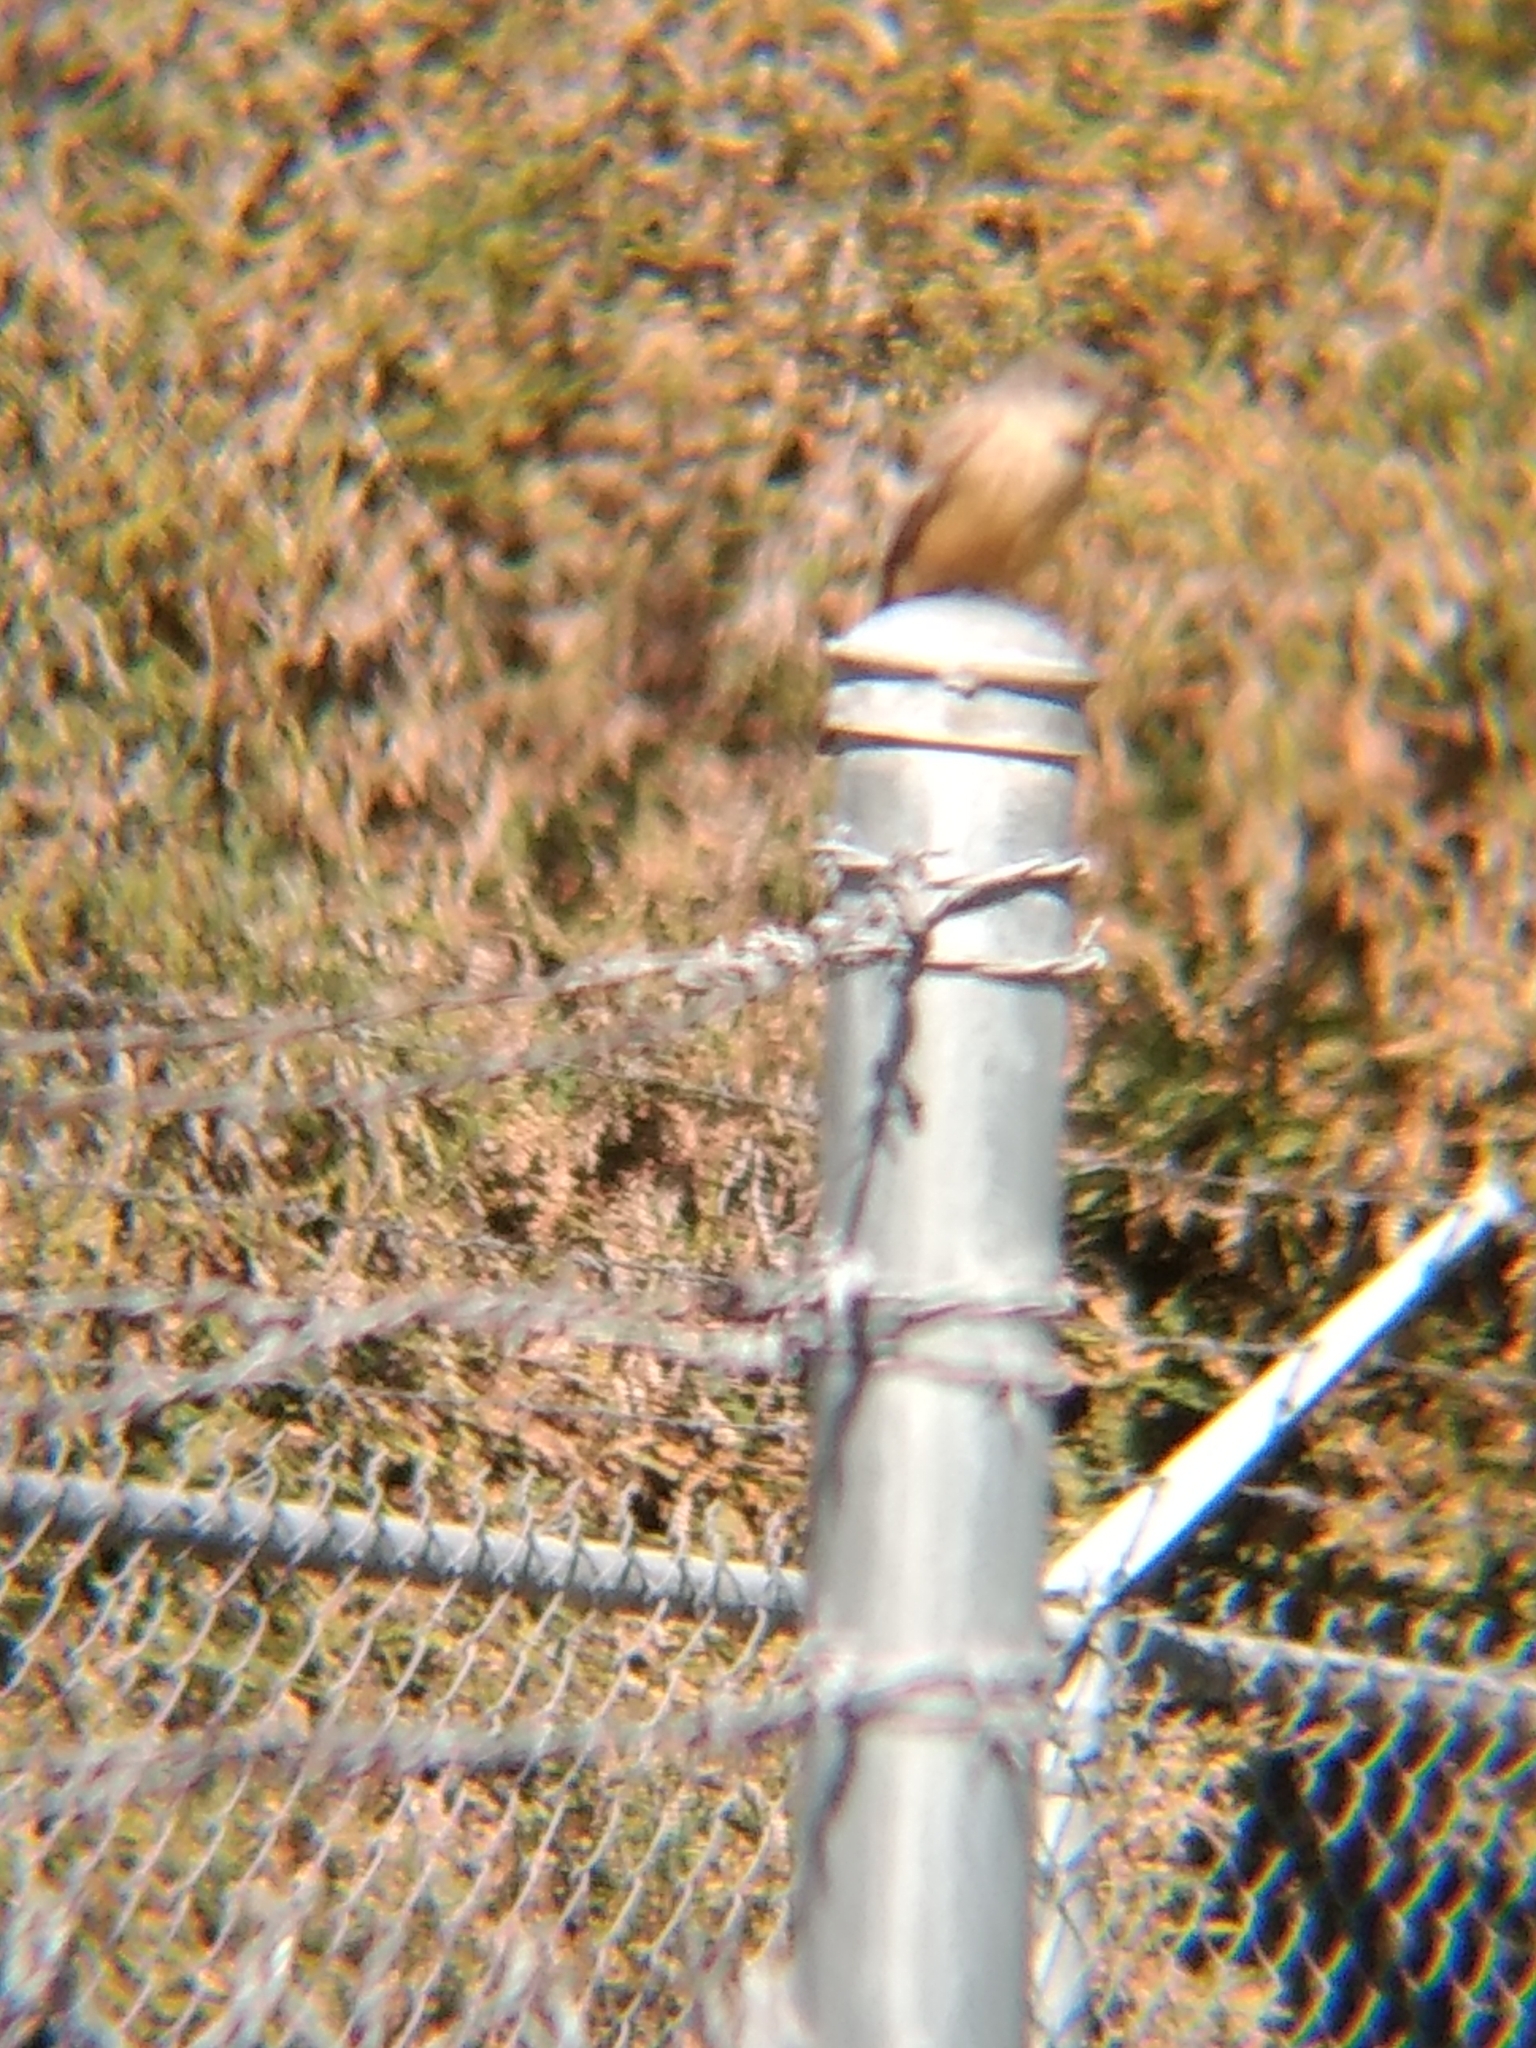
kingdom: Animalia
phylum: Chordata
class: Aves
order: Passeriformes
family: Tyrannidae
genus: Sayornis
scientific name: Sayornis saya
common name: Say's phoebe
